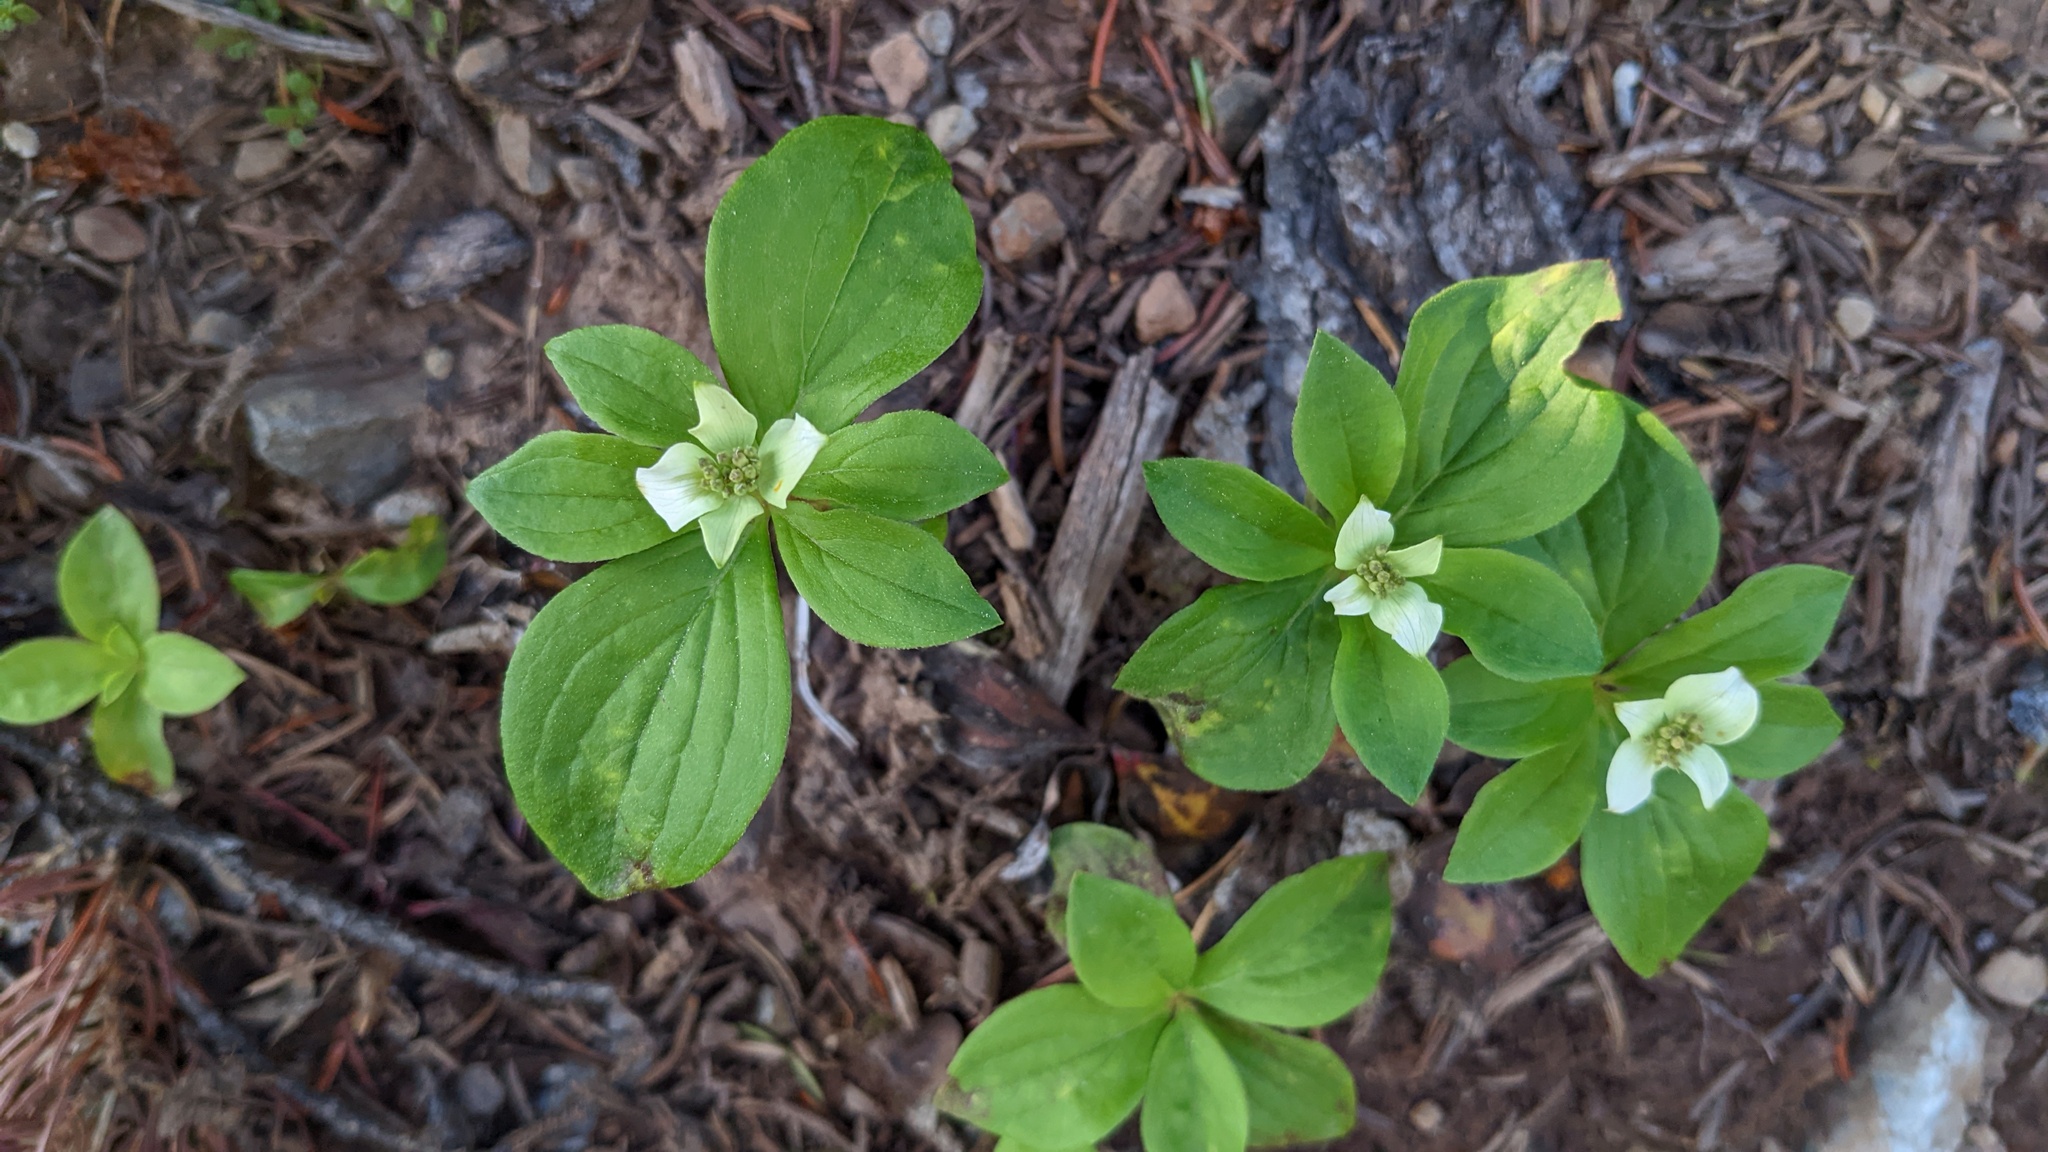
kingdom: Plantae
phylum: Tracheophyta
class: Magnoliopsida
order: Cornales
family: Cornaceae
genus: Cornus
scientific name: Cornus canadensis
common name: Creeping dogwood
